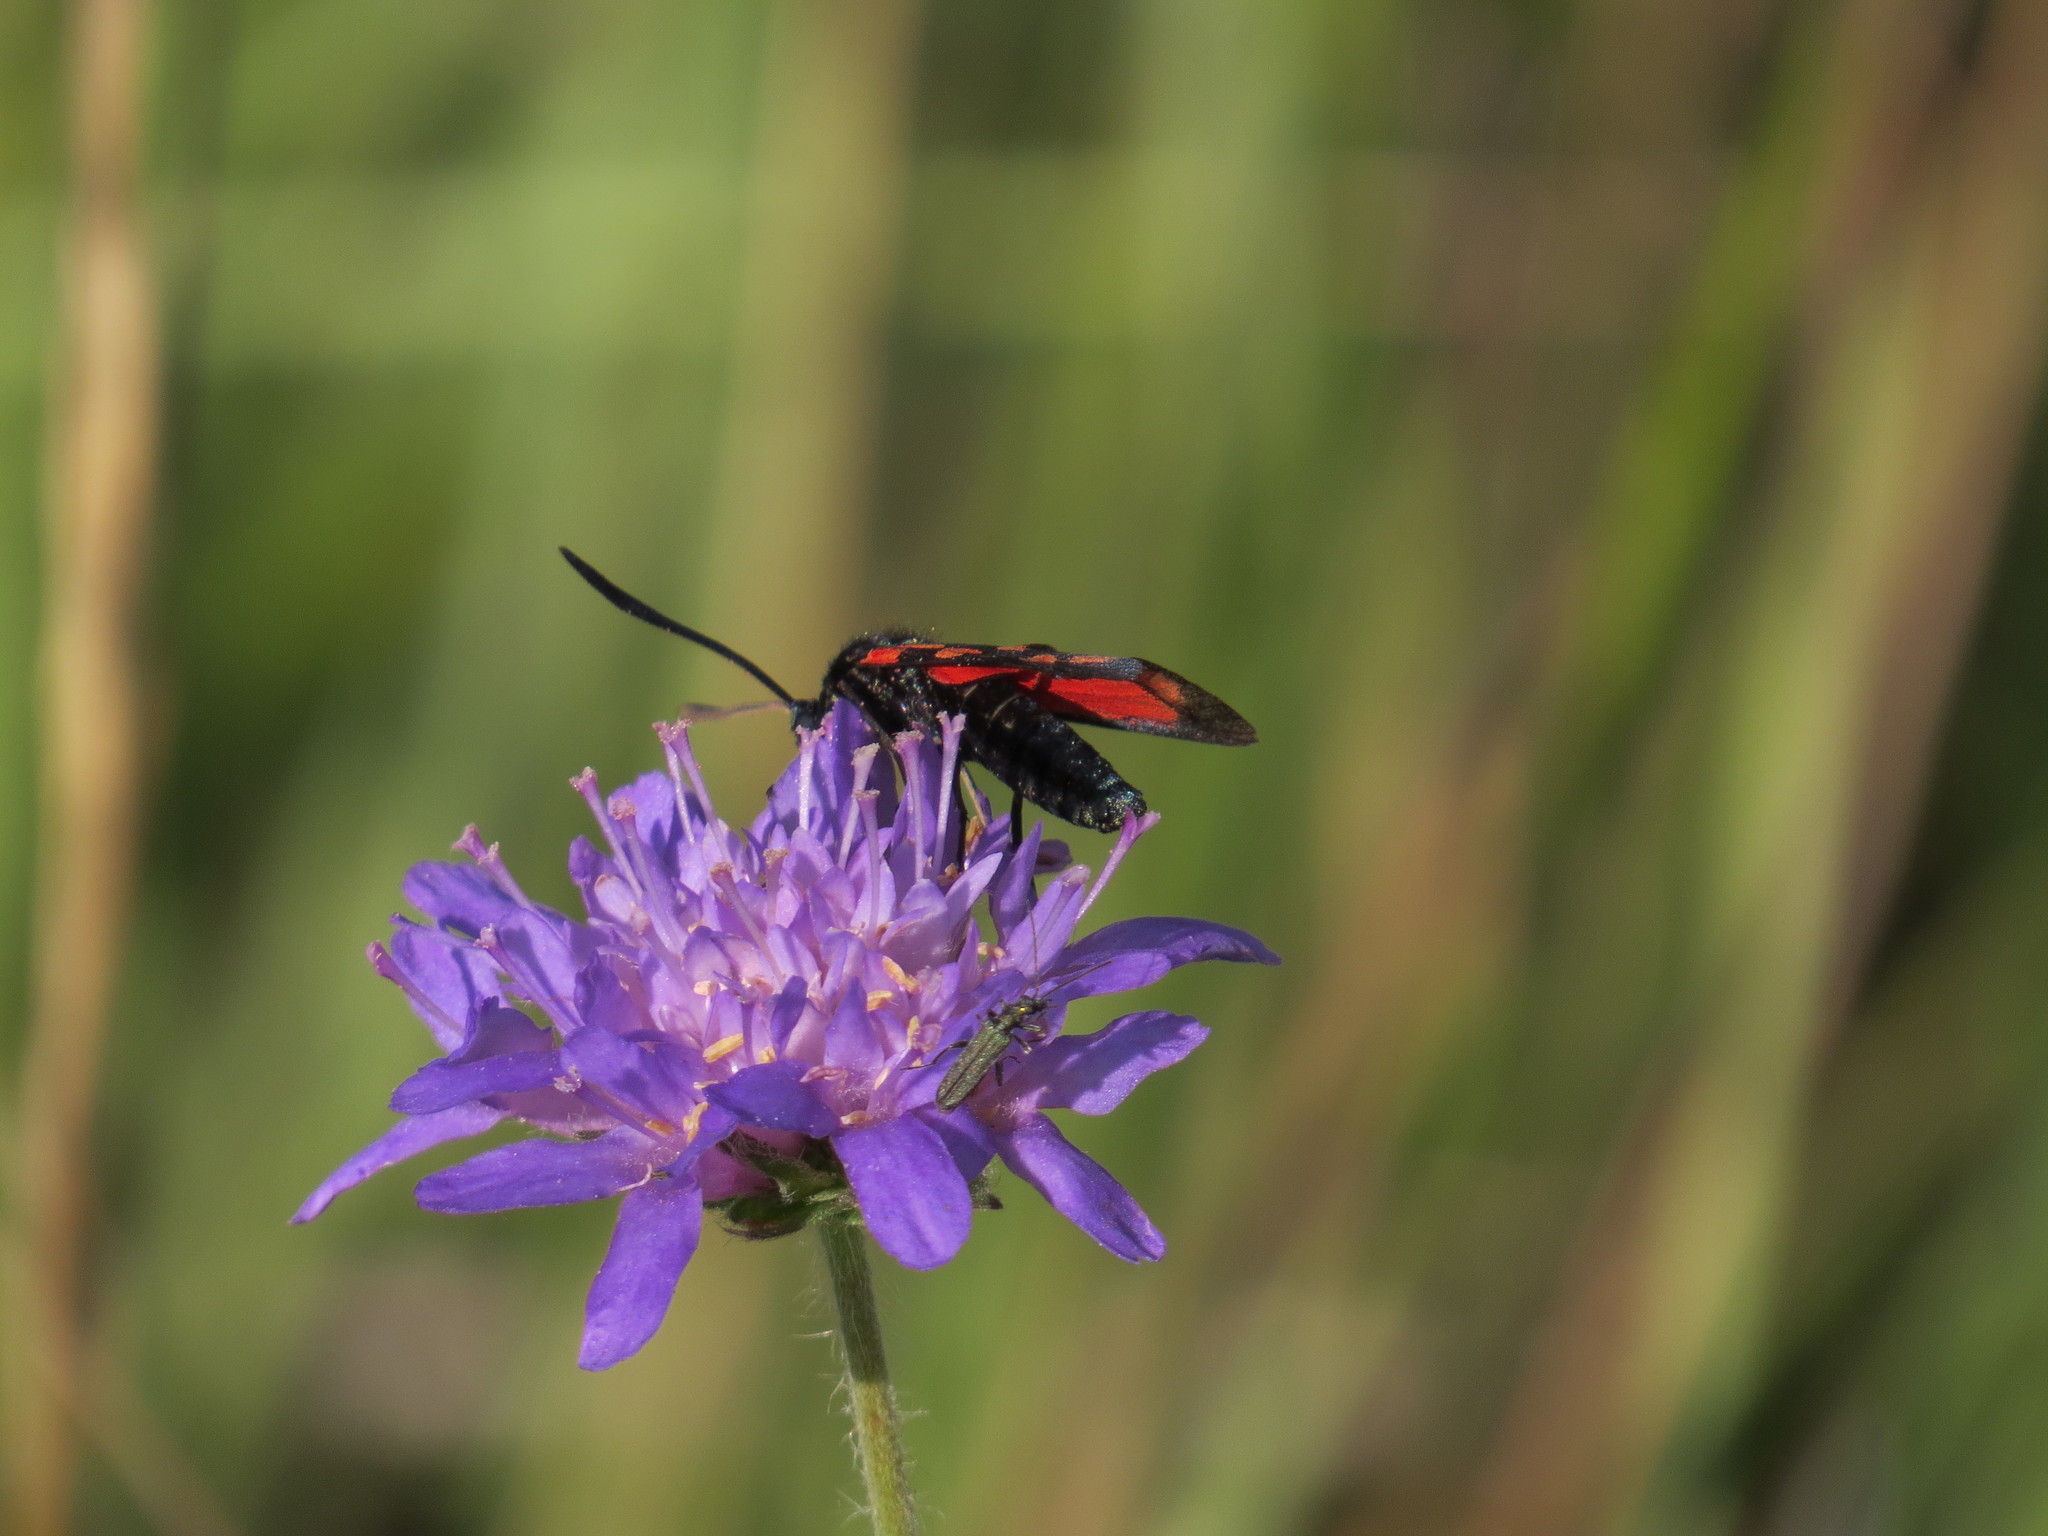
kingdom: Animalia
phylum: Arthropoda
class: Insecta
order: Lepidoptera
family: Zygaenidae
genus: Zygaena
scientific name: Zygaena transalpina
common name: Southern six spot burnet
